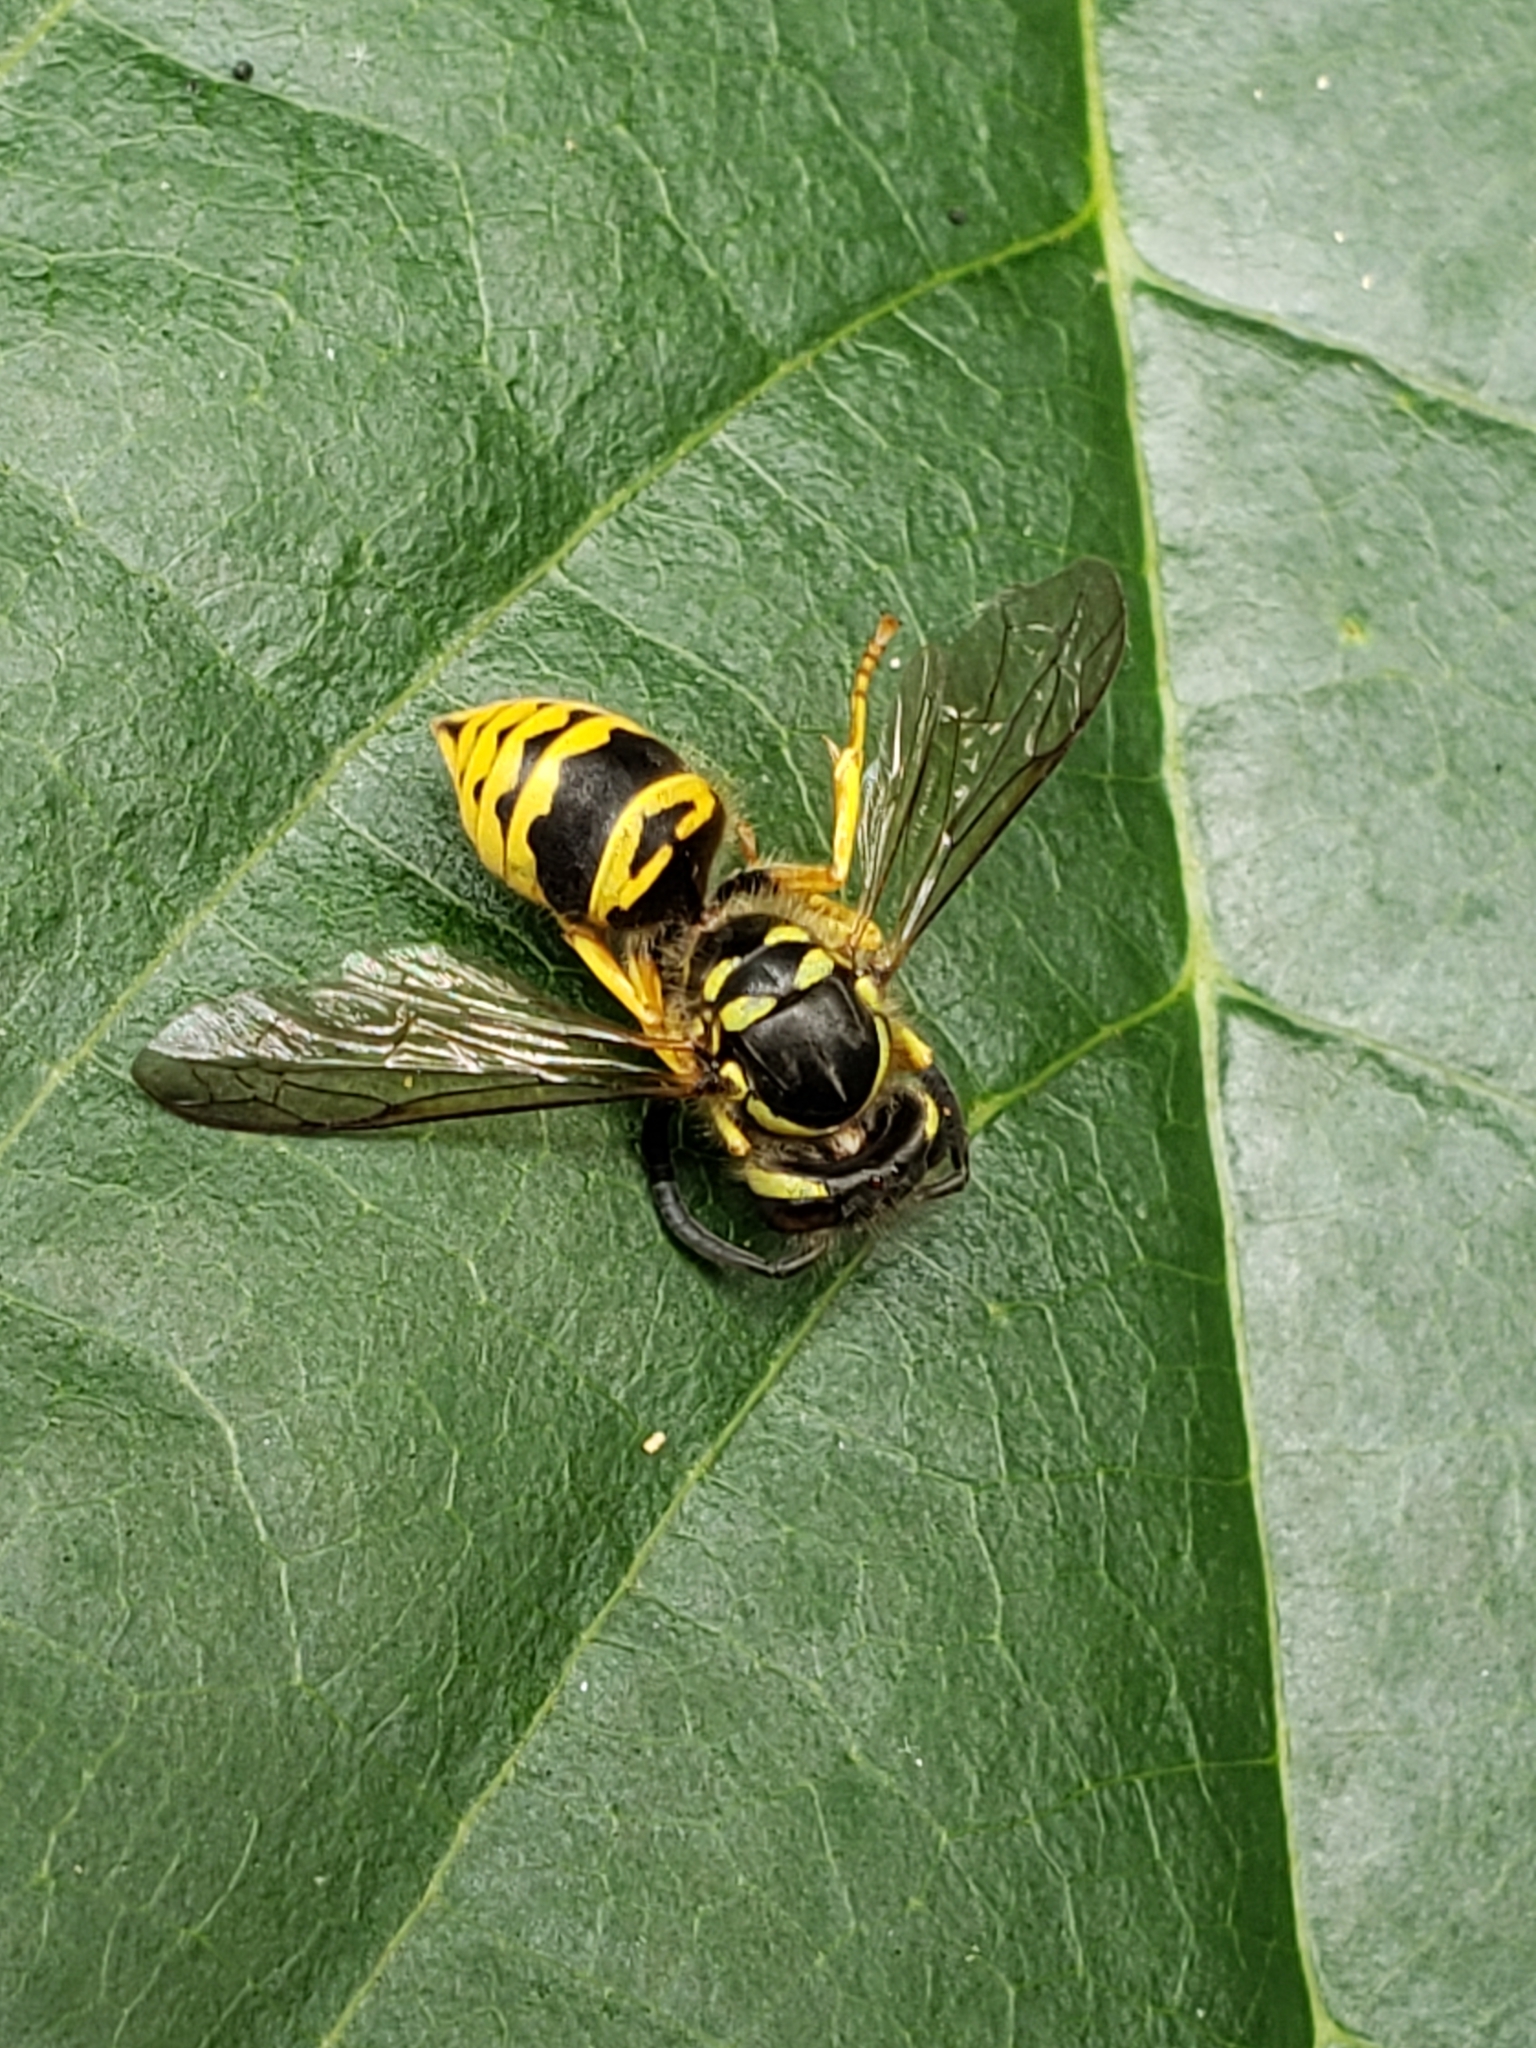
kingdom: Animalia
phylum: Arthropoda
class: Insecta
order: Hymenoptera
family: Vespidae
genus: Vespula
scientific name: Vespula maculifrons
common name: Eastern yellowjacket
